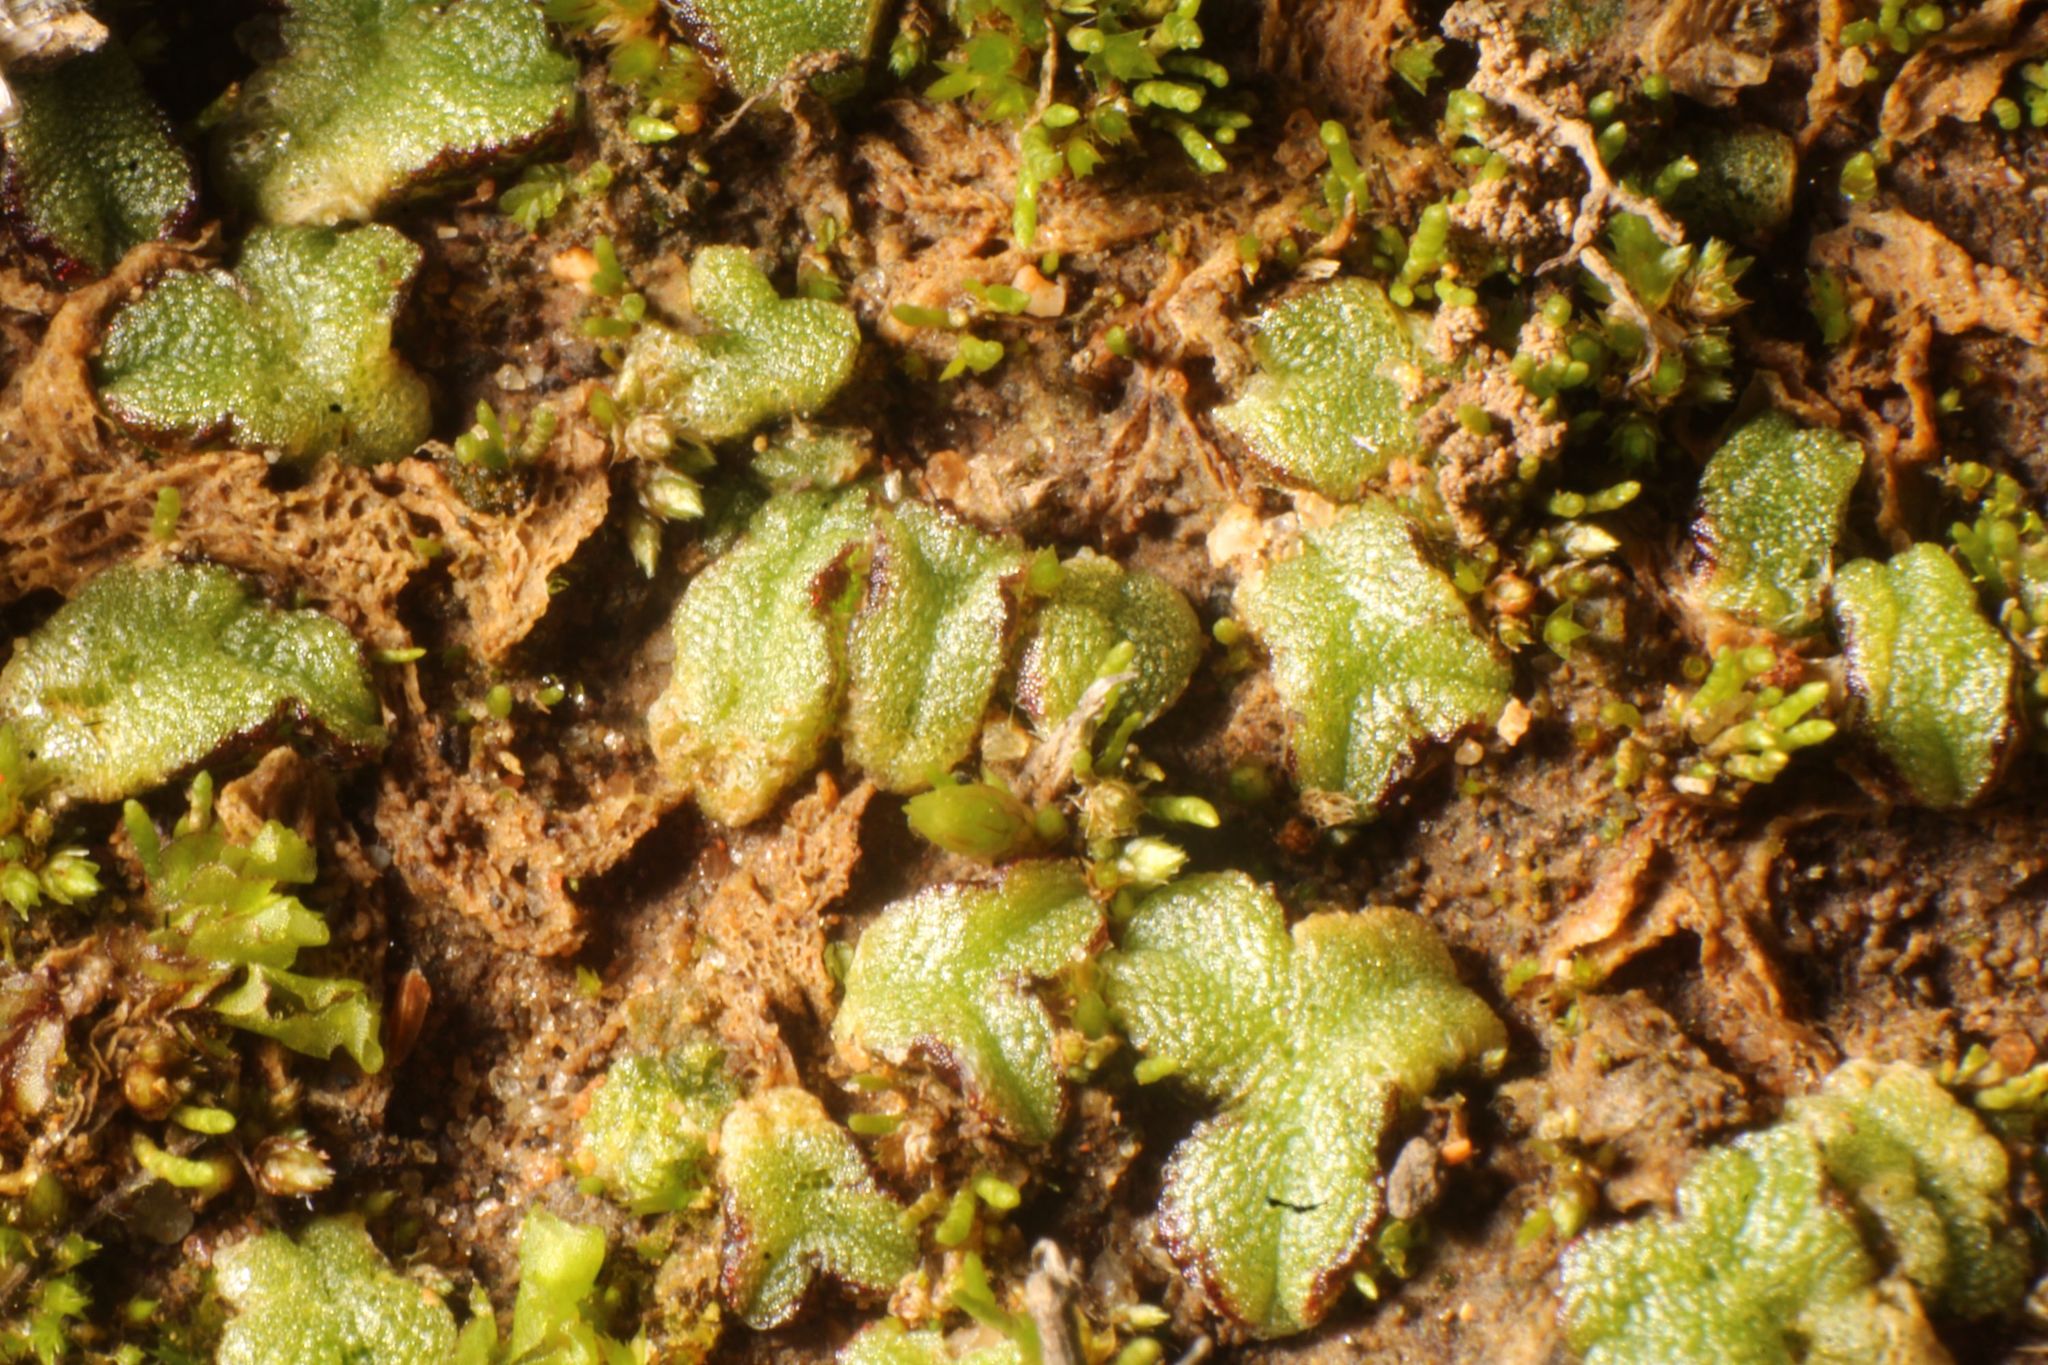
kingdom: Plantae
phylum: Marchantiophyta
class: Marchantiopsida
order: Marchantiales
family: Ricciaceae
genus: Riccia
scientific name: Riccia crassa
